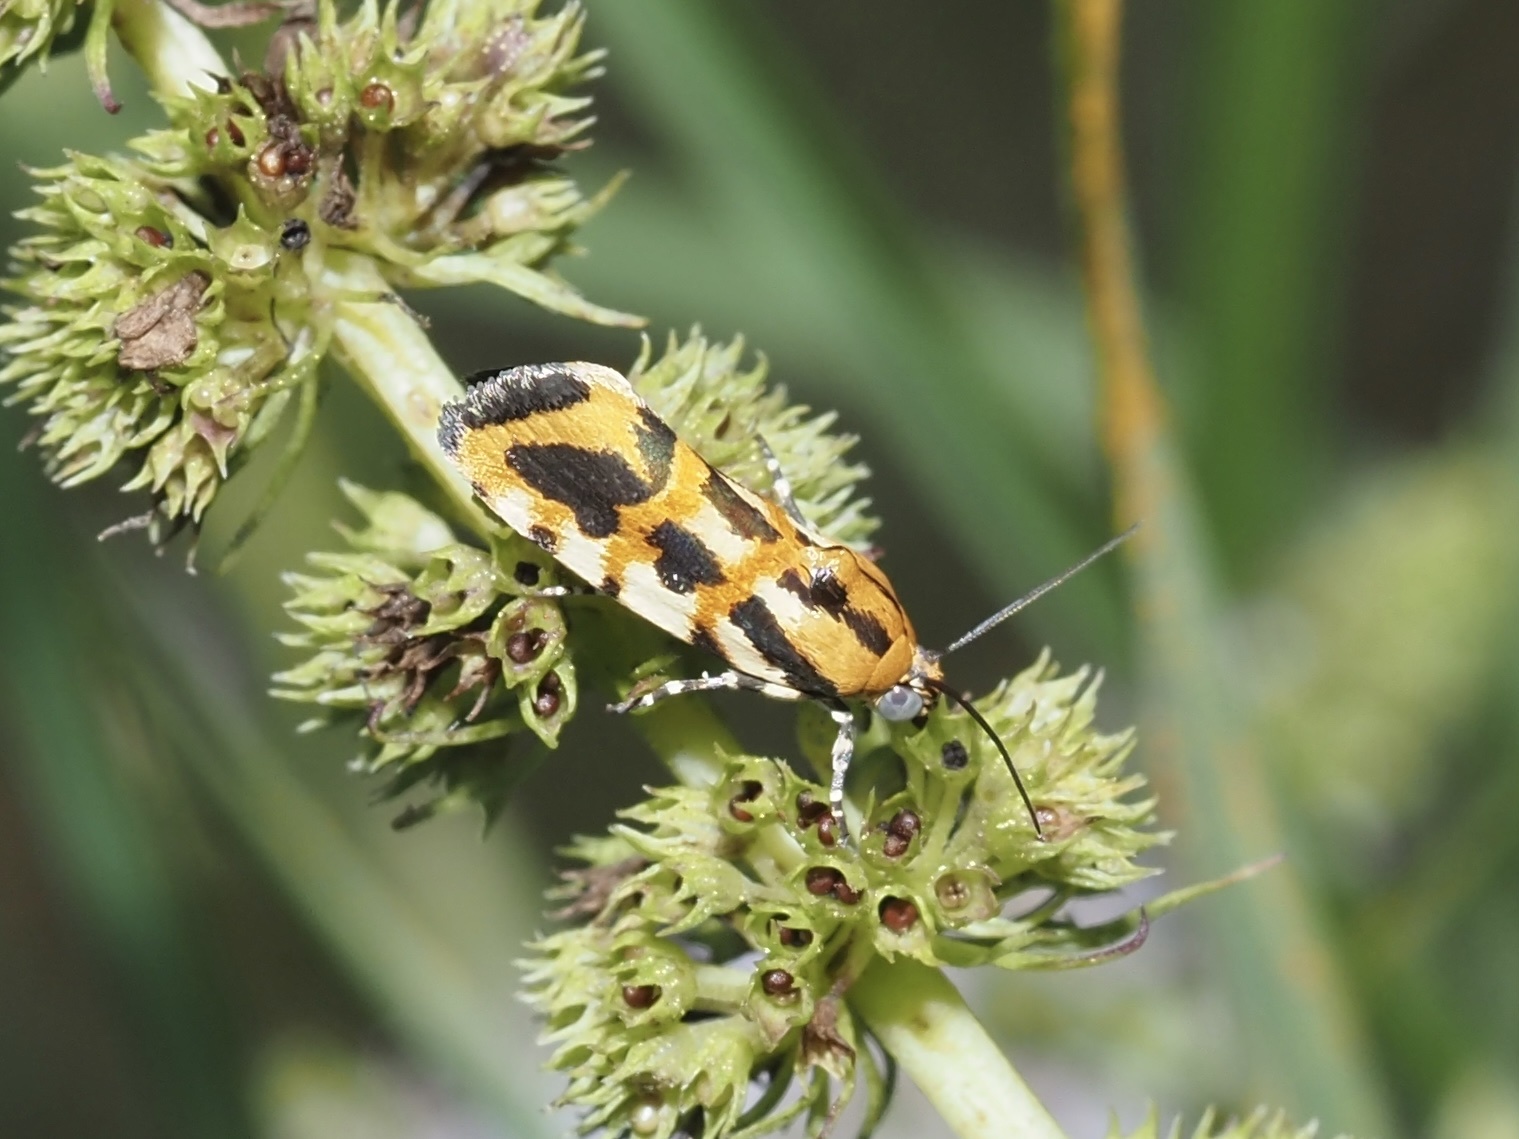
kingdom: Animalia
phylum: Arthropoda
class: Insecta
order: Lepidoptera
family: Noctuidae
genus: Acontia
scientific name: Acontia leo
